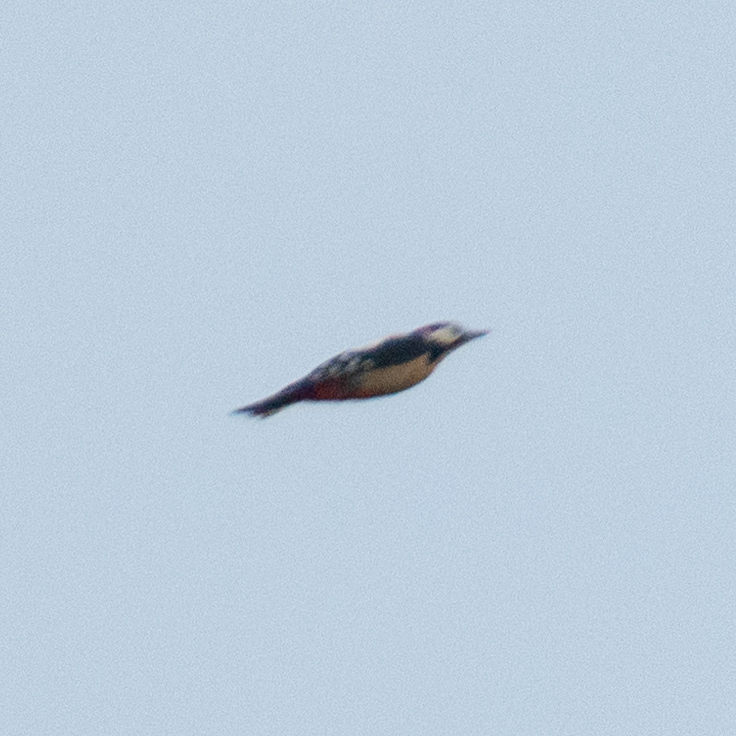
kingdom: Animalia
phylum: Chordata
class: Aves
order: Piciformes
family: Picidae
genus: Dendrocopos
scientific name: Dendrocopos major
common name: Great spotted woodpecker
